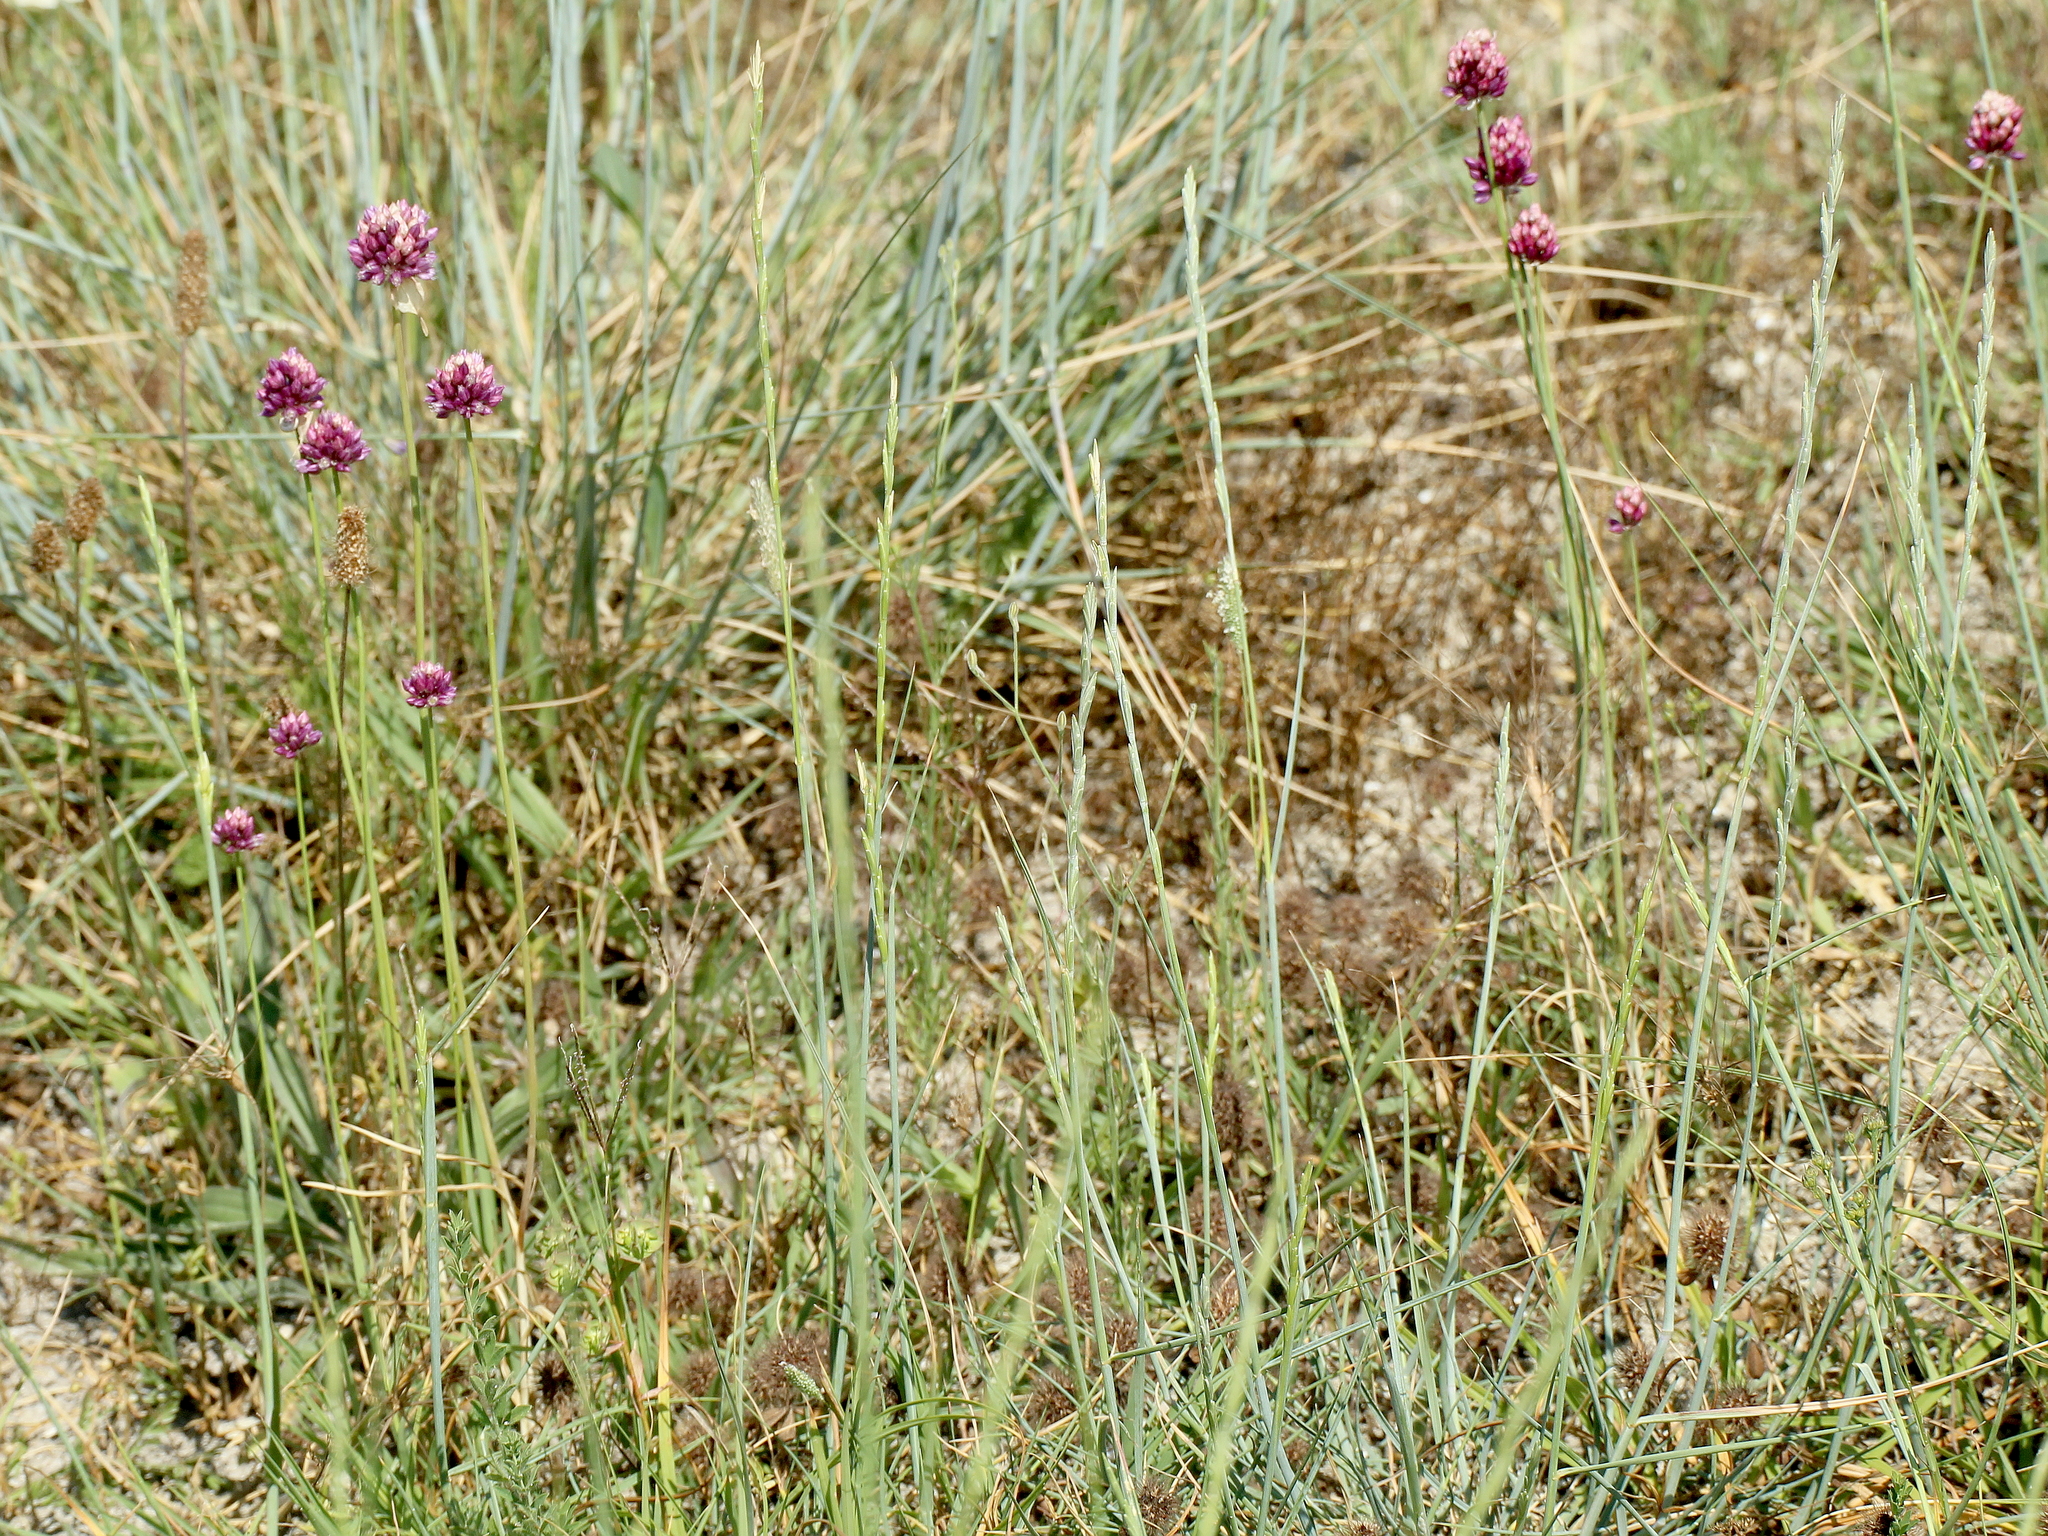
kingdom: Plantae
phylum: Tracheophyta
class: Liliopsida
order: Asparagales
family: Amaryllidaceae
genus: Allium
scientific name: Allium rotundum
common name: Sand leek
